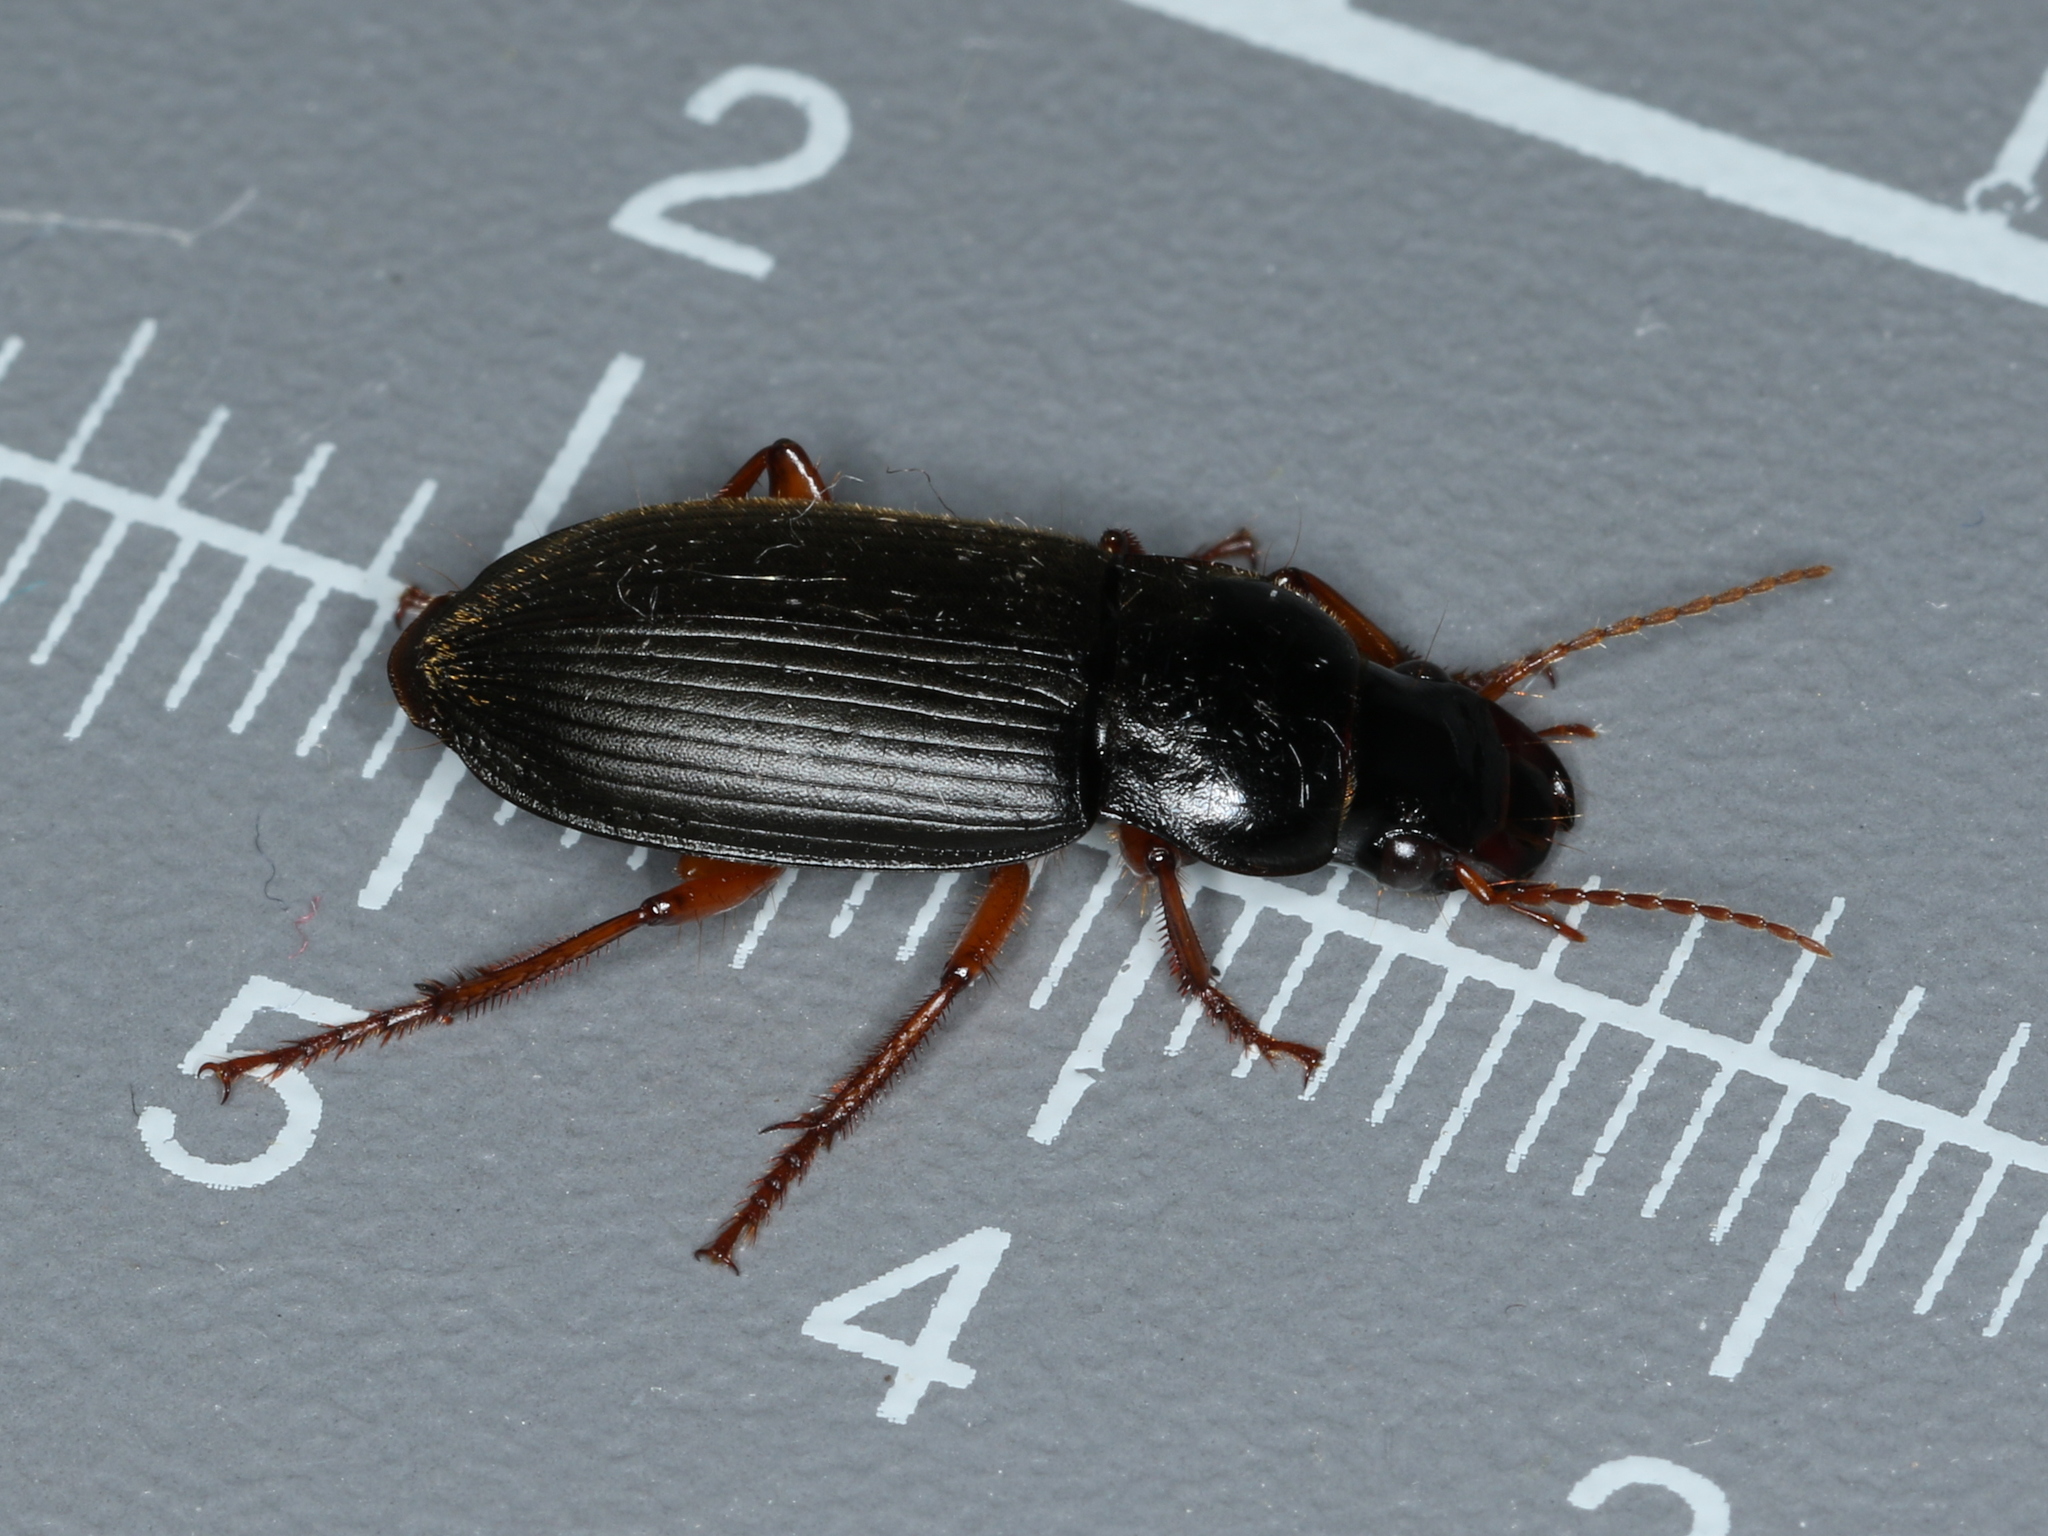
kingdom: Animalia
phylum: Arthropoda
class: Insecta
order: Coleoptera
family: Carabidae
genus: Harpalus
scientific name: Harpalus rufipes
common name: Strawberry harp ground beetle
